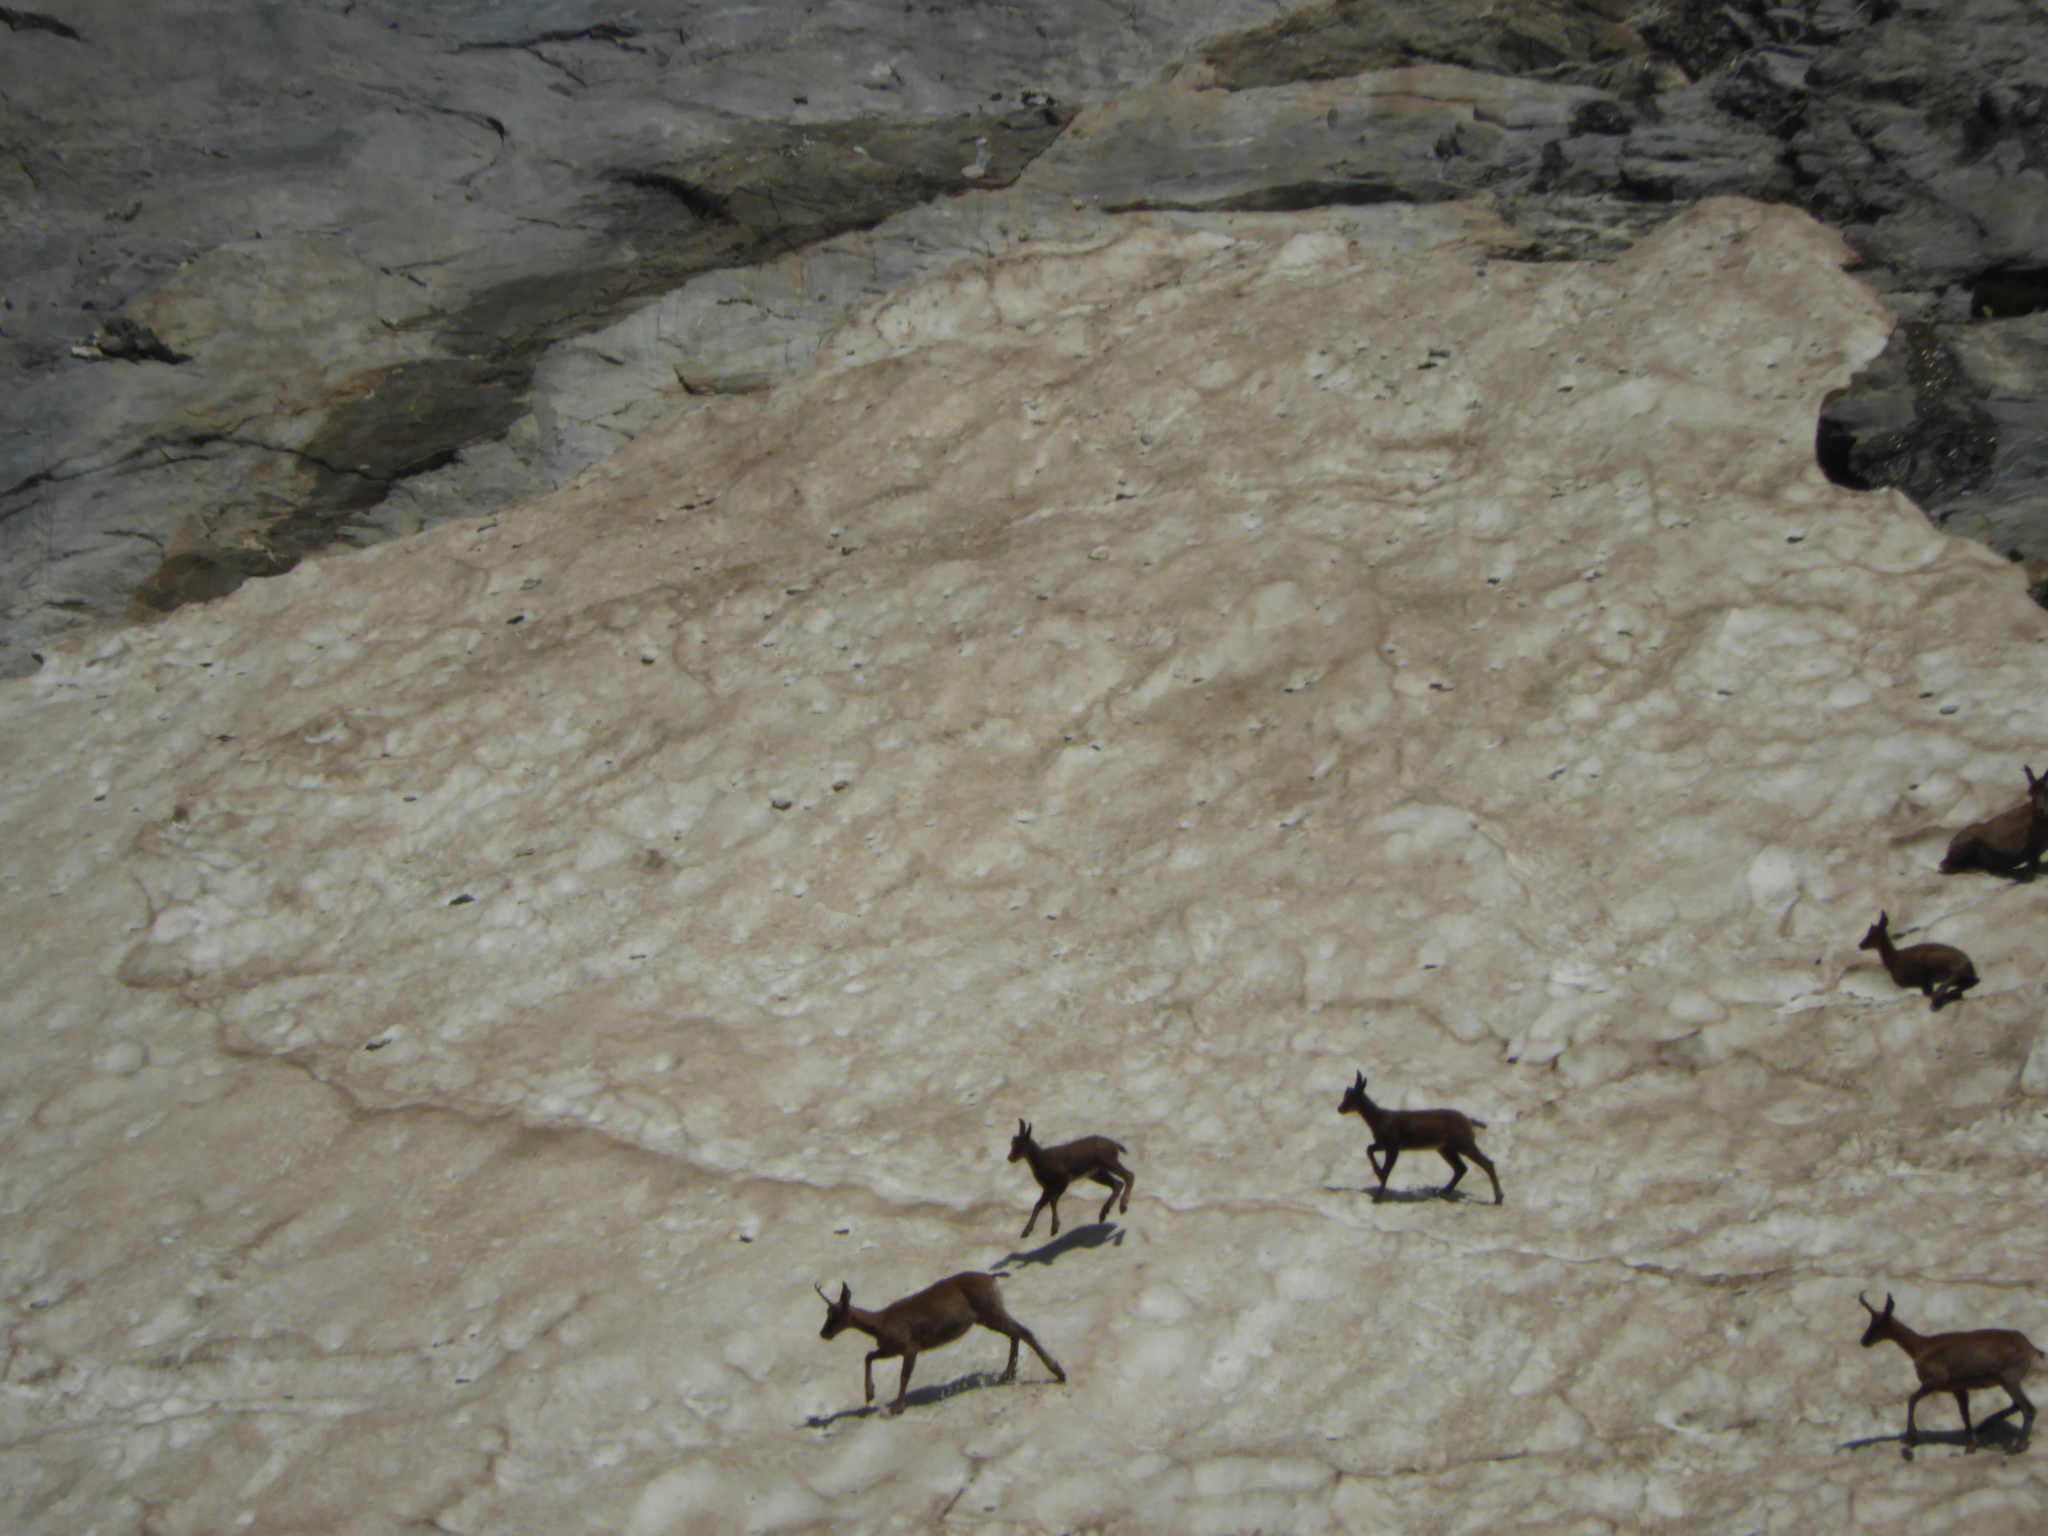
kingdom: Animalia
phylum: Chordata
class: Mammalia
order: Artiodactyla
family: Bovidae
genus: Rupicapra
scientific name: Rupicapra pyrenaica
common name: Pyrenean chamois
